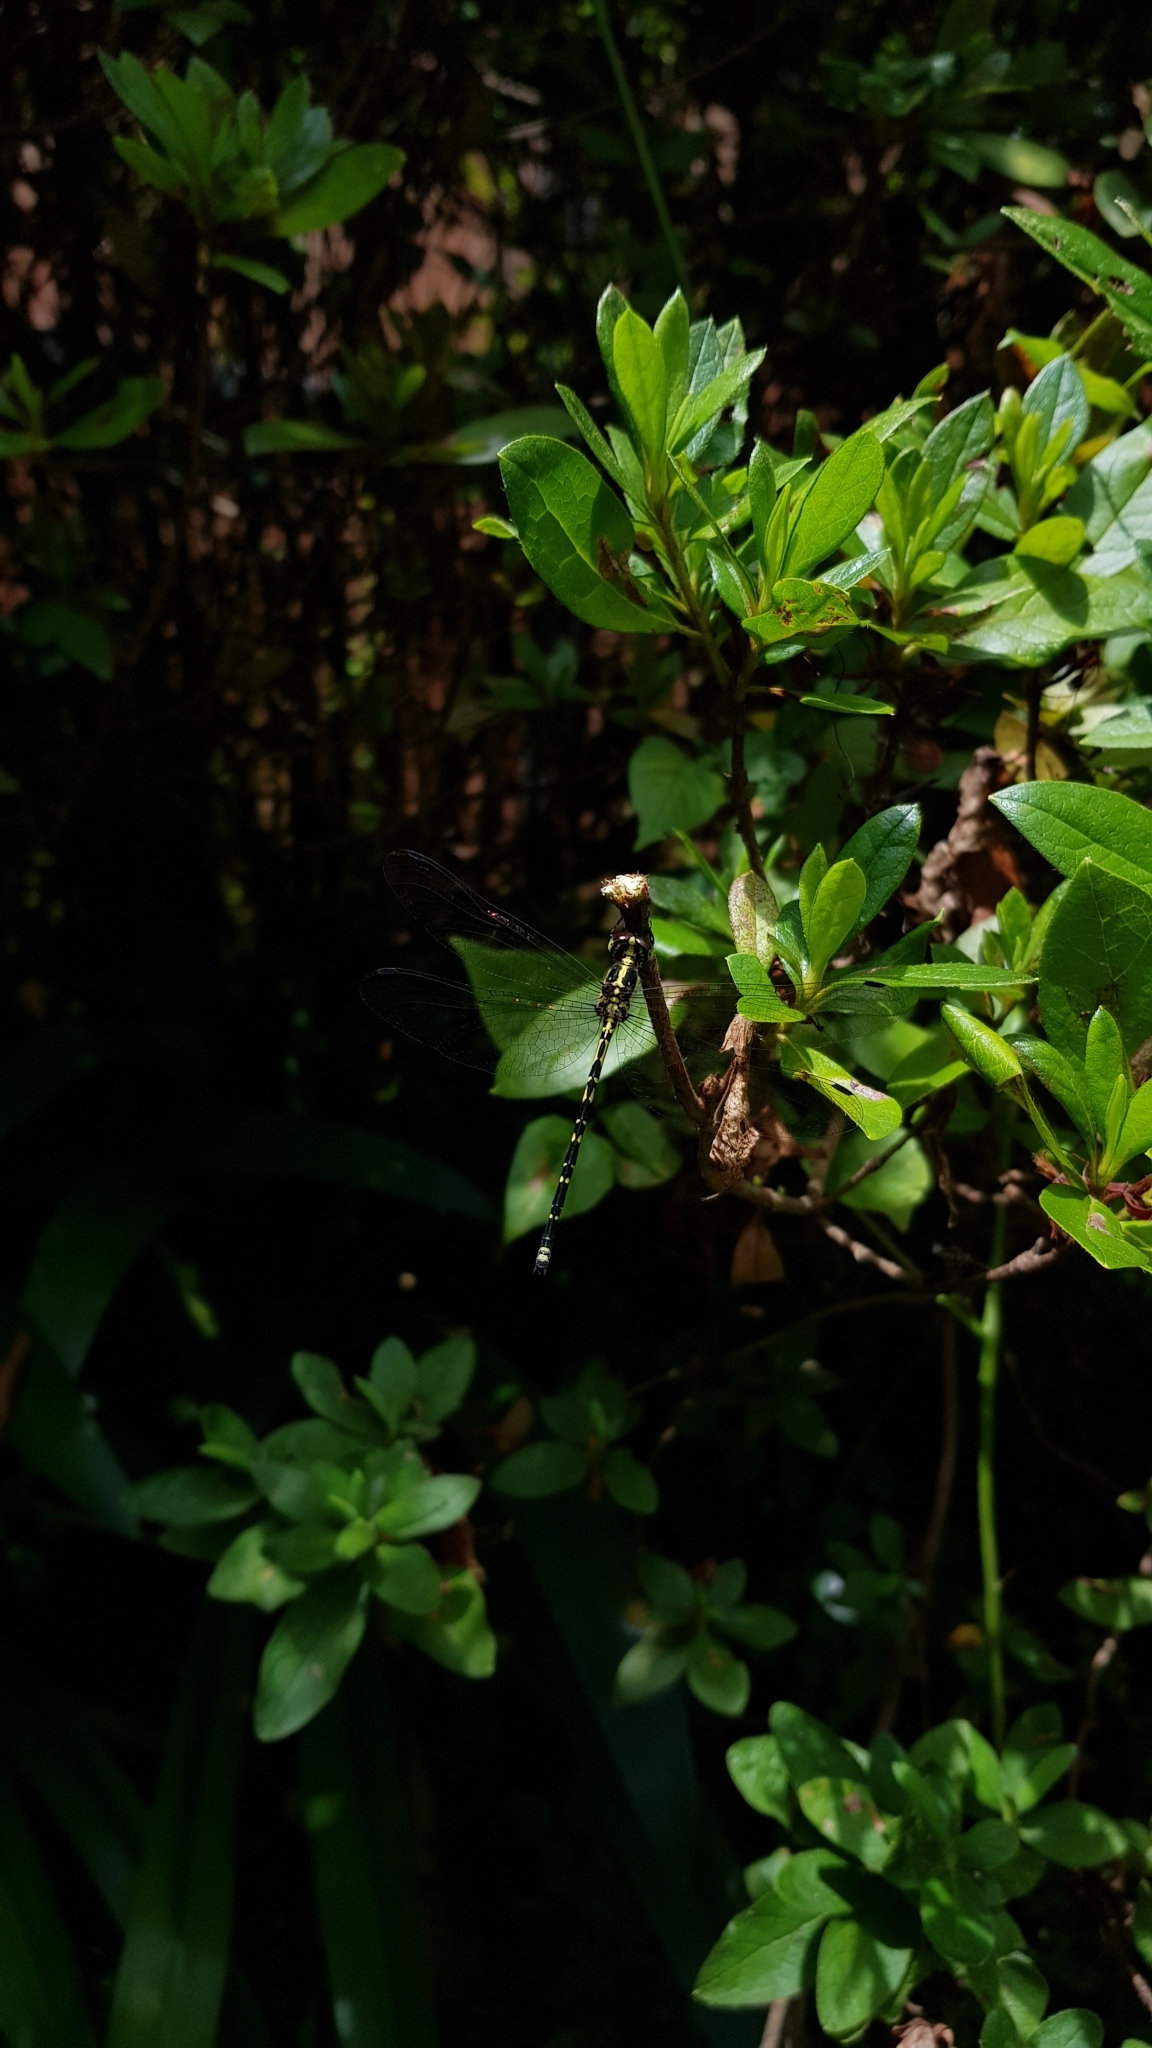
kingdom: Animalia
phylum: Arthropoda
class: Insecta
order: Odonata
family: Synthemistidae
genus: Choristhemis
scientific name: Choristhemis flavoterminata
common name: Yellow-tipped tigertail
